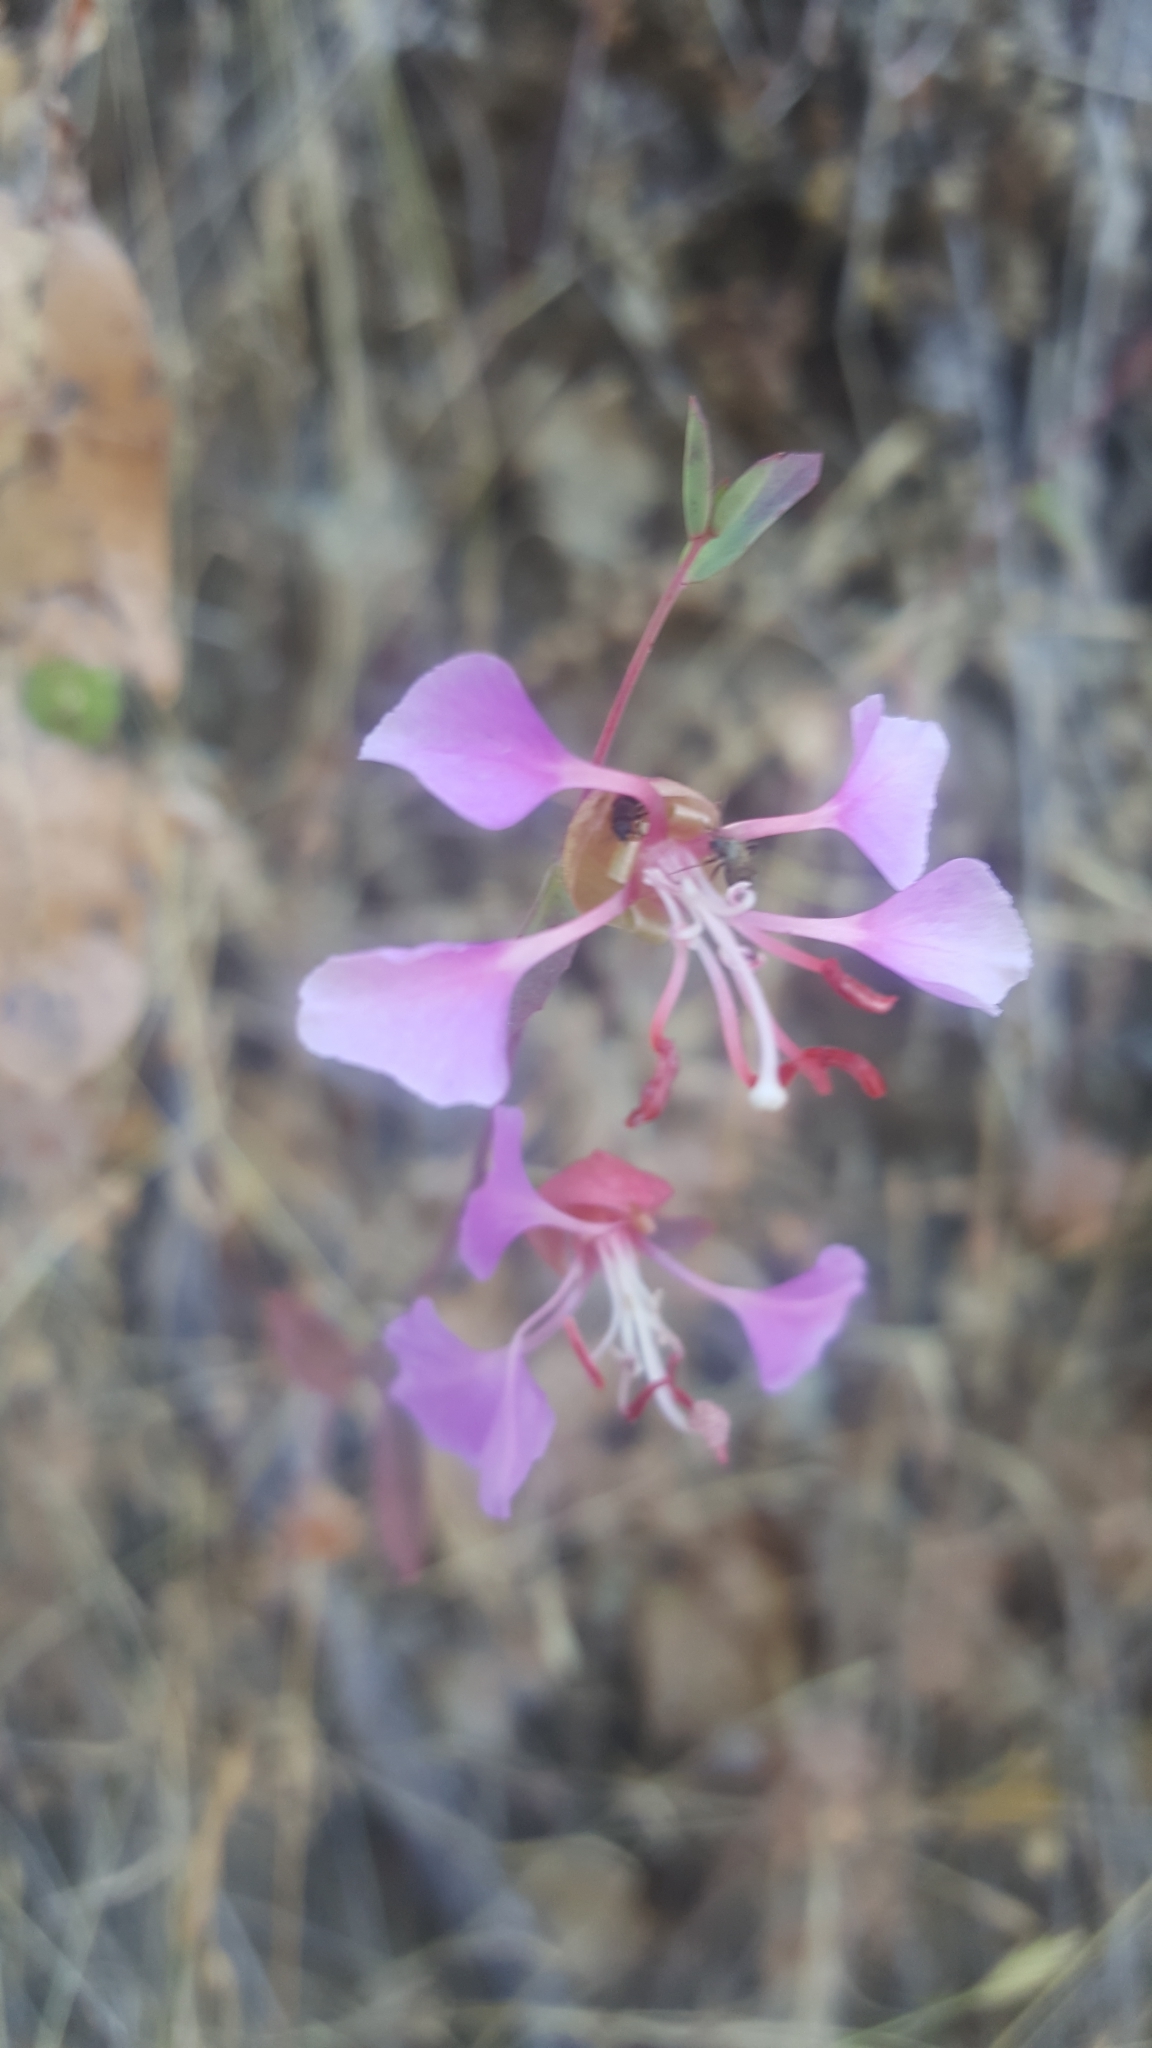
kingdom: Plantae
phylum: Tracheophyta
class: Magnoliopsida
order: Myrtales
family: Onagraceae
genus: Clarkia
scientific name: Clarkia unguiculata
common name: Clarkia
